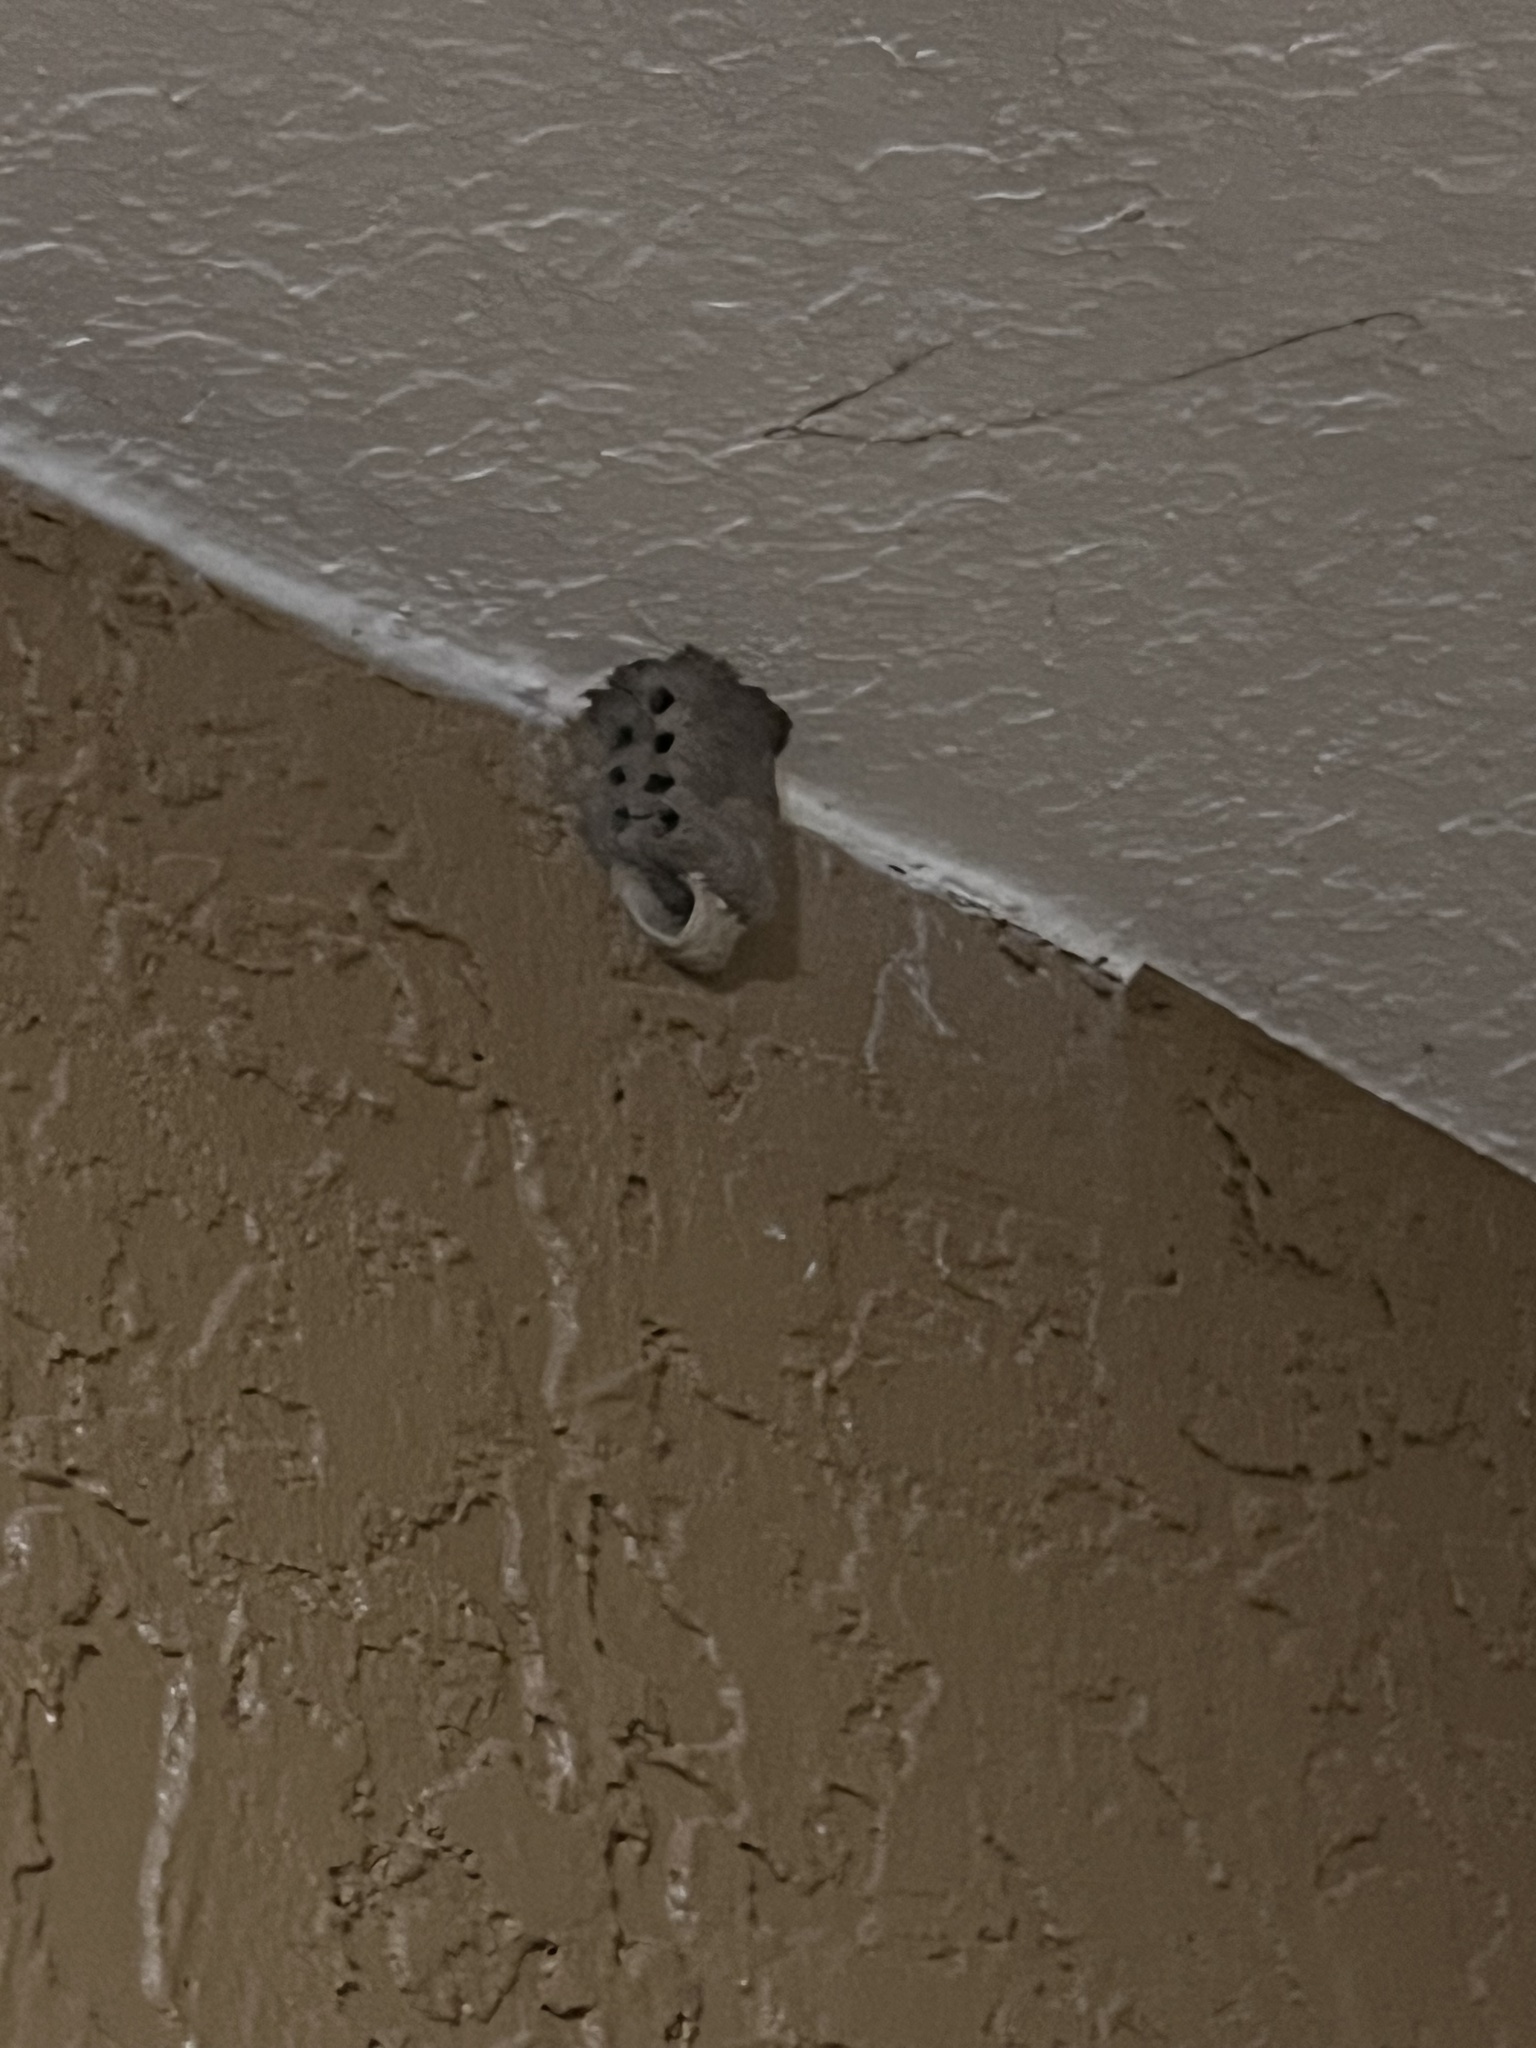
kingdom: Animalia
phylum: Arthropoda
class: Insecta
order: Hymenoptera
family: Sphecidae
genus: Sceliphron
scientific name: Sceliphron caementarium
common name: Mud dauber
